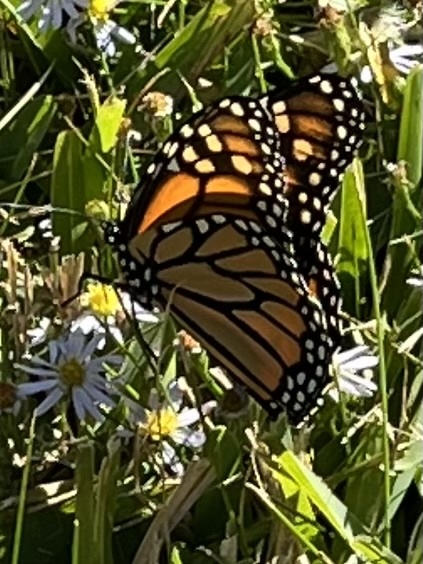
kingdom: Animalia
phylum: Arthropoda
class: Insecta
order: Lepidoptera
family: Nymphalidae
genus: Danaus
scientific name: Danaus plexippus
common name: Monarch
